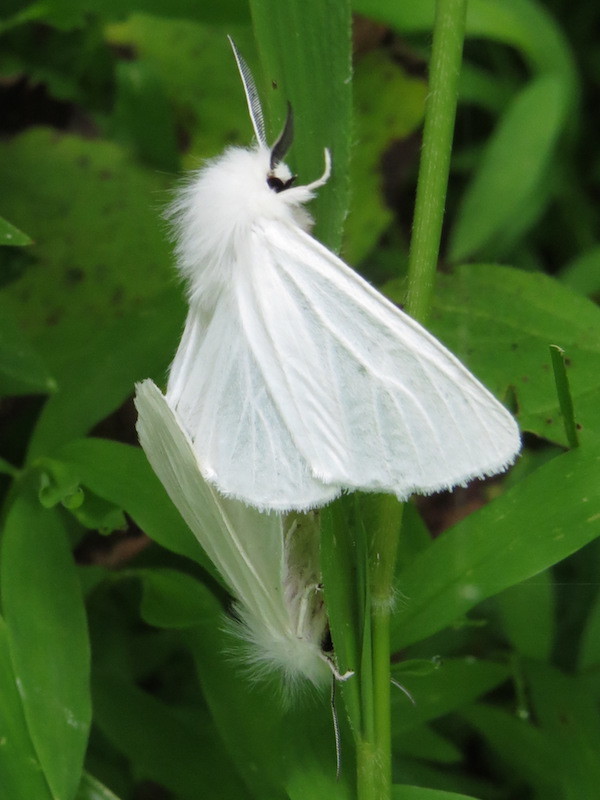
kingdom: Animalia
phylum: Arthropoda
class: Insecta
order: Lepidoptera
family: Erebidae
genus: Spilosoma
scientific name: Spilosoma latipennis
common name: Pink-legged tiger moth
